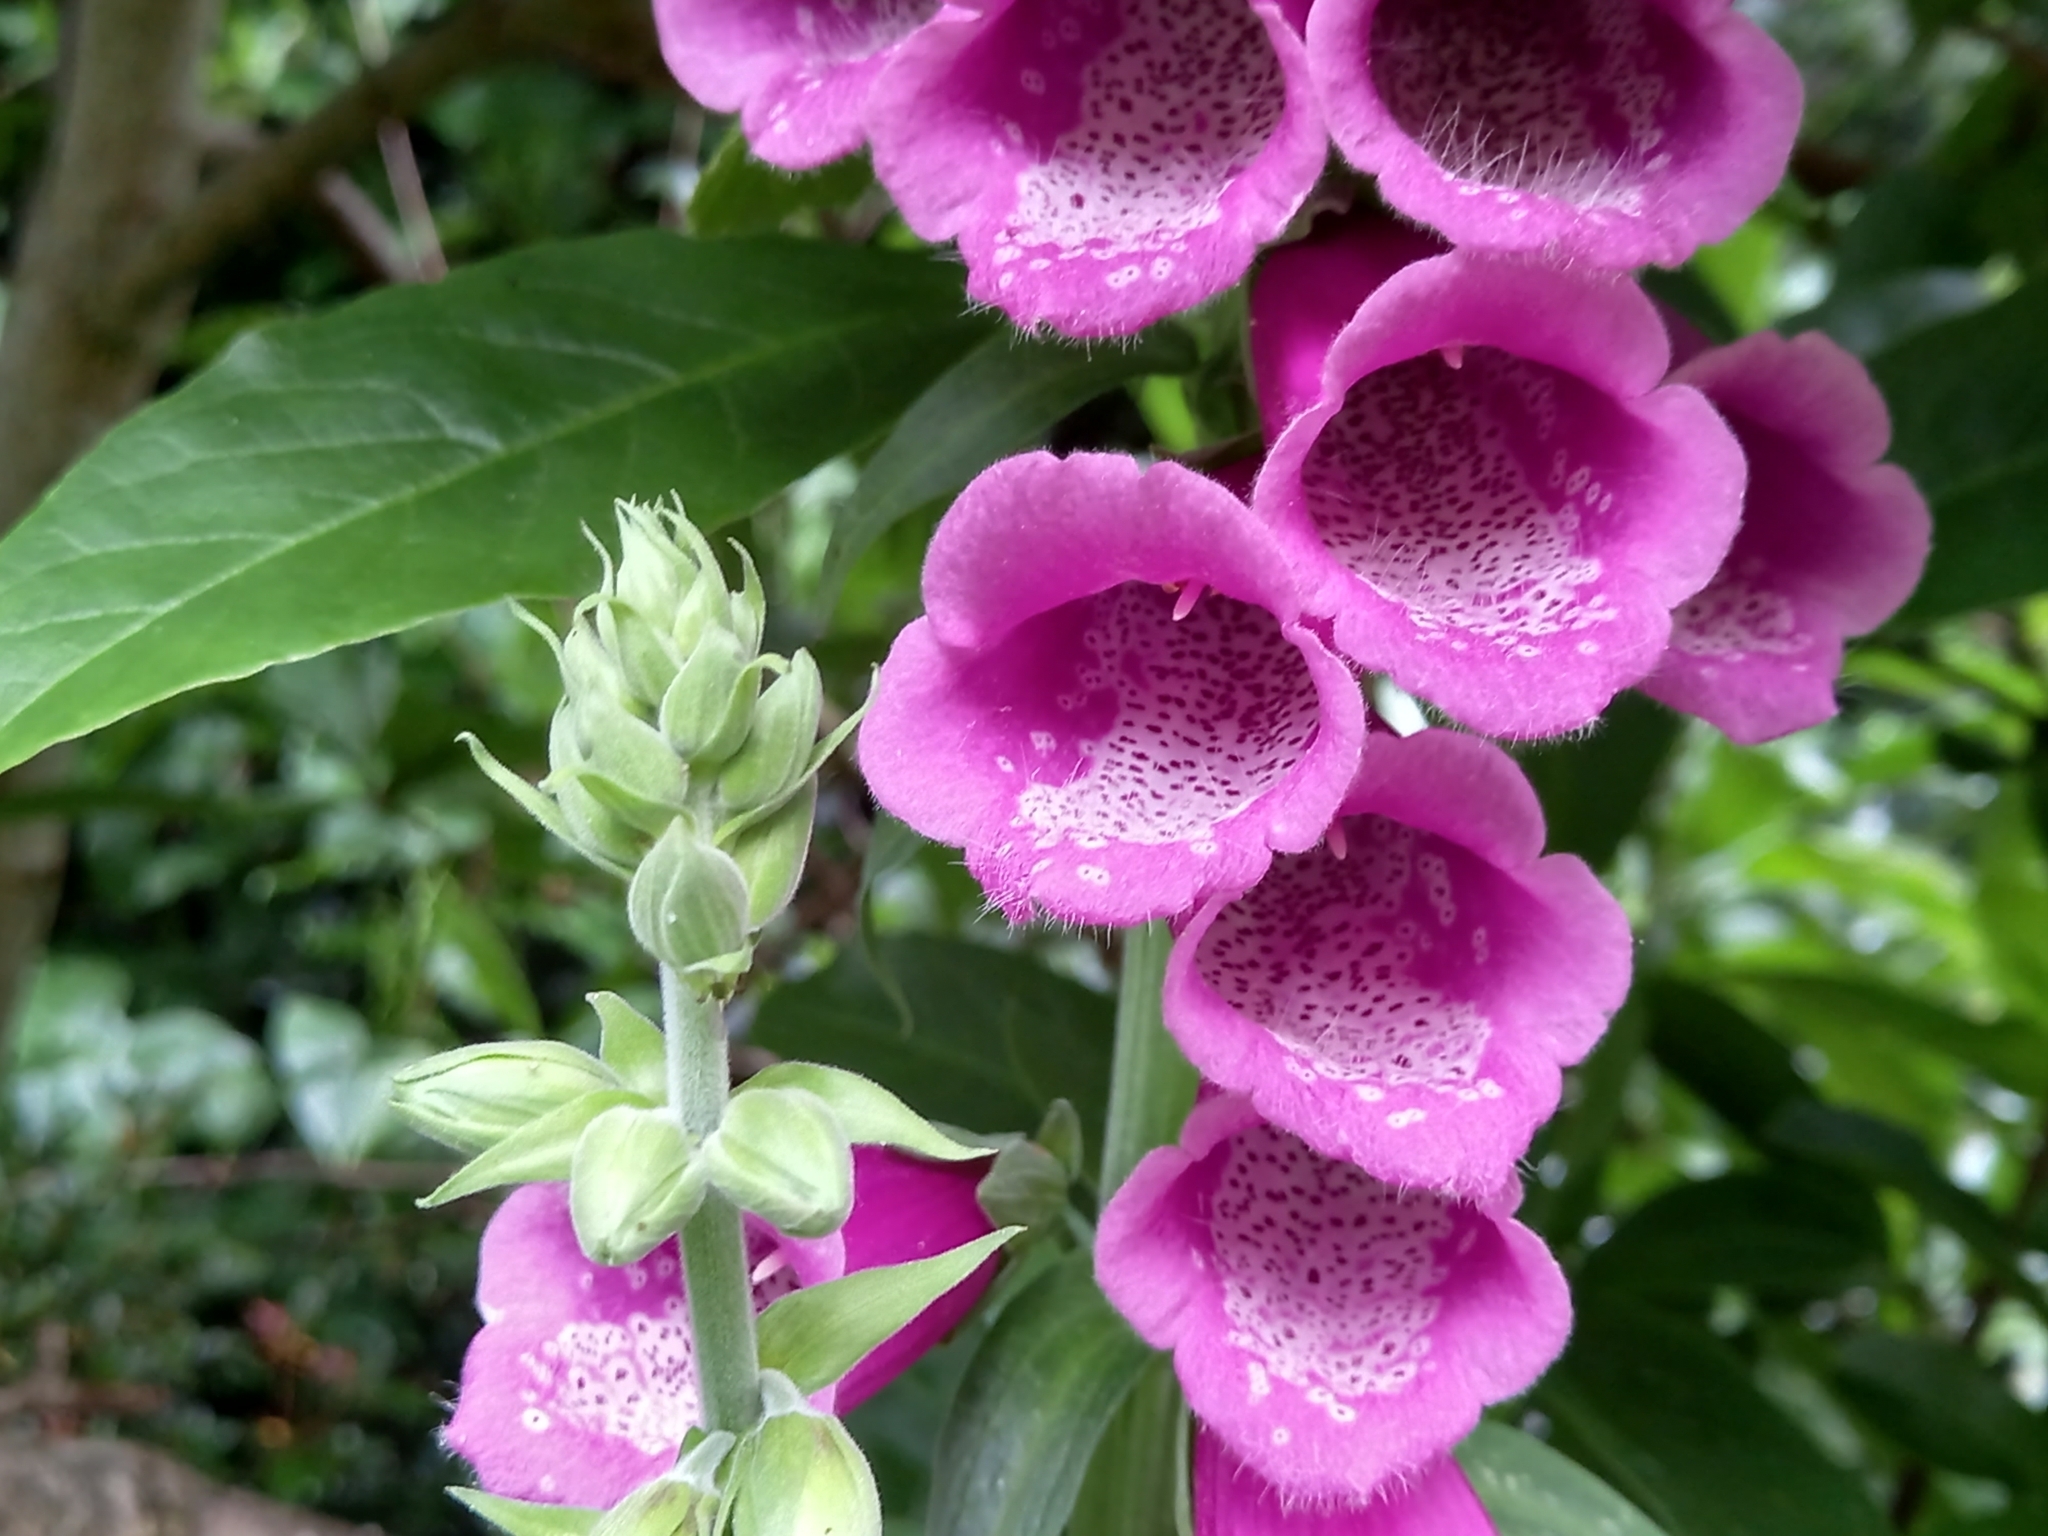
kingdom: Plantae
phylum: Tracheophyta
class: Magnoliopsida
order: Lamiales
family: Plantaginaceae
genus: Digitalis
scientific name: Digitalis purpurea
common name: Foxglove
